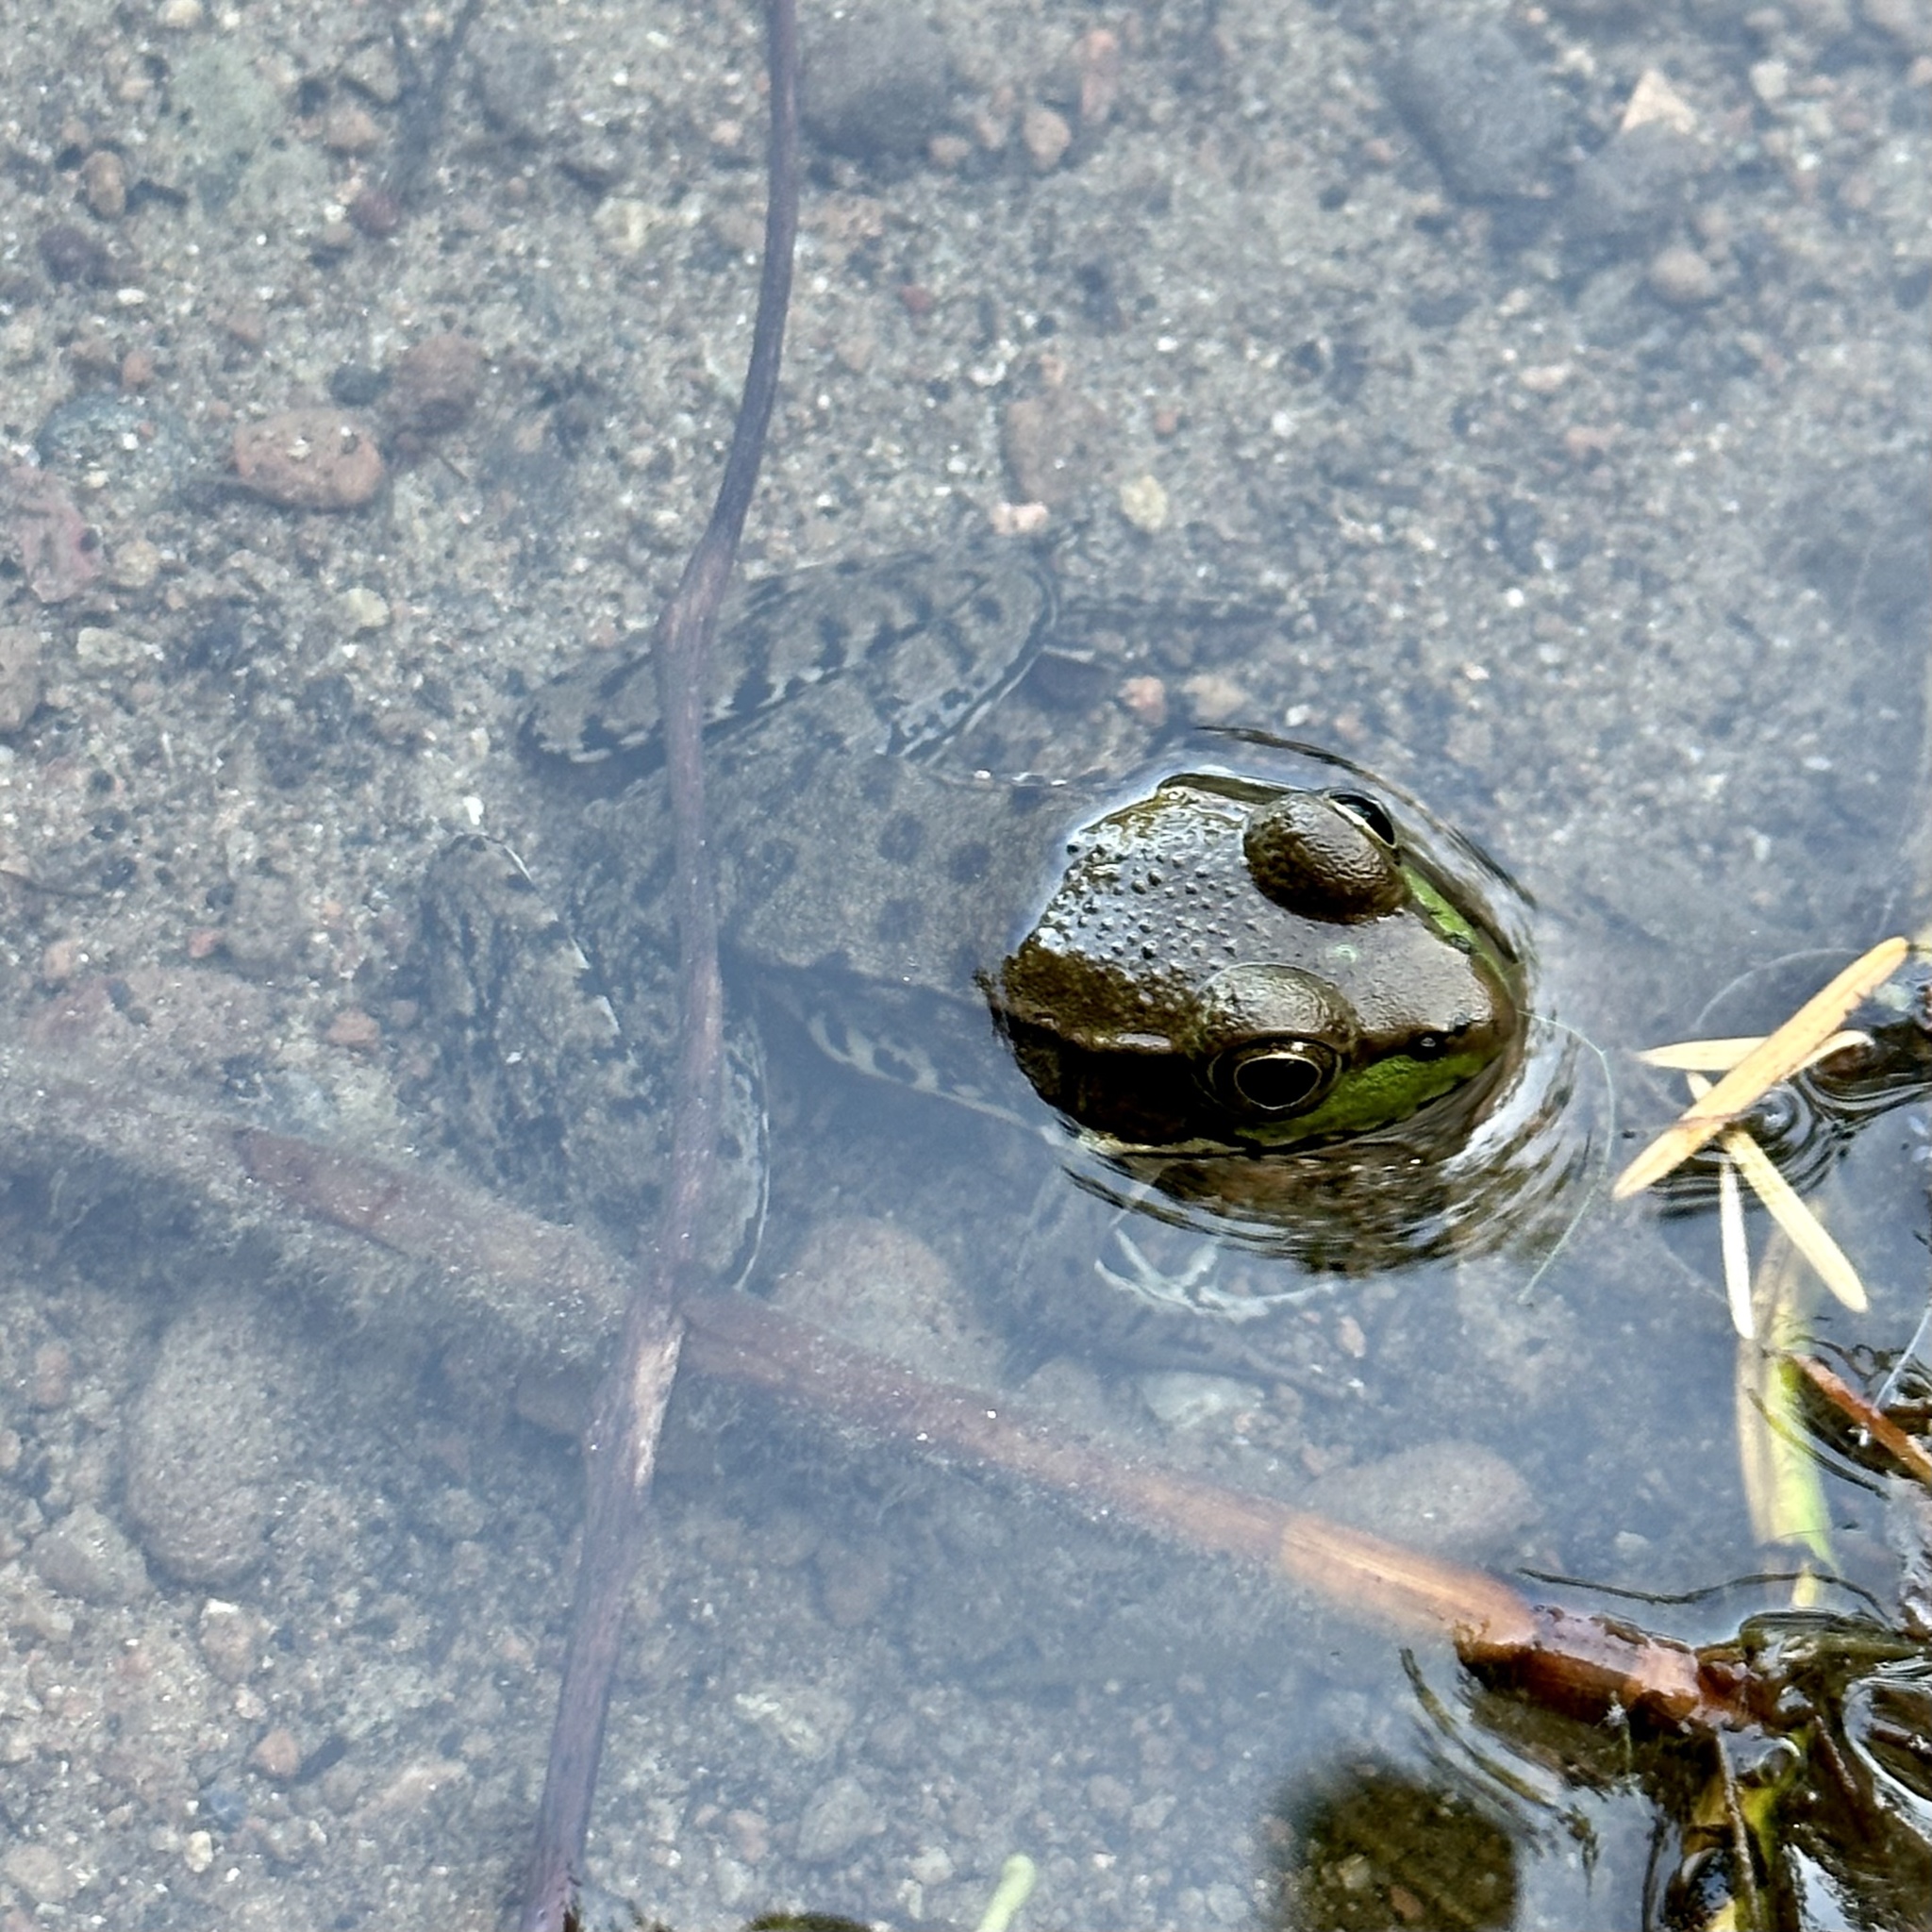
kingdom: Animalia
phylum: Chordata
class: Amphibia
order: Anura
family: Ranidae
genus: Lithobates
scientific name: Lithobates clamitans
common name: Green frog
